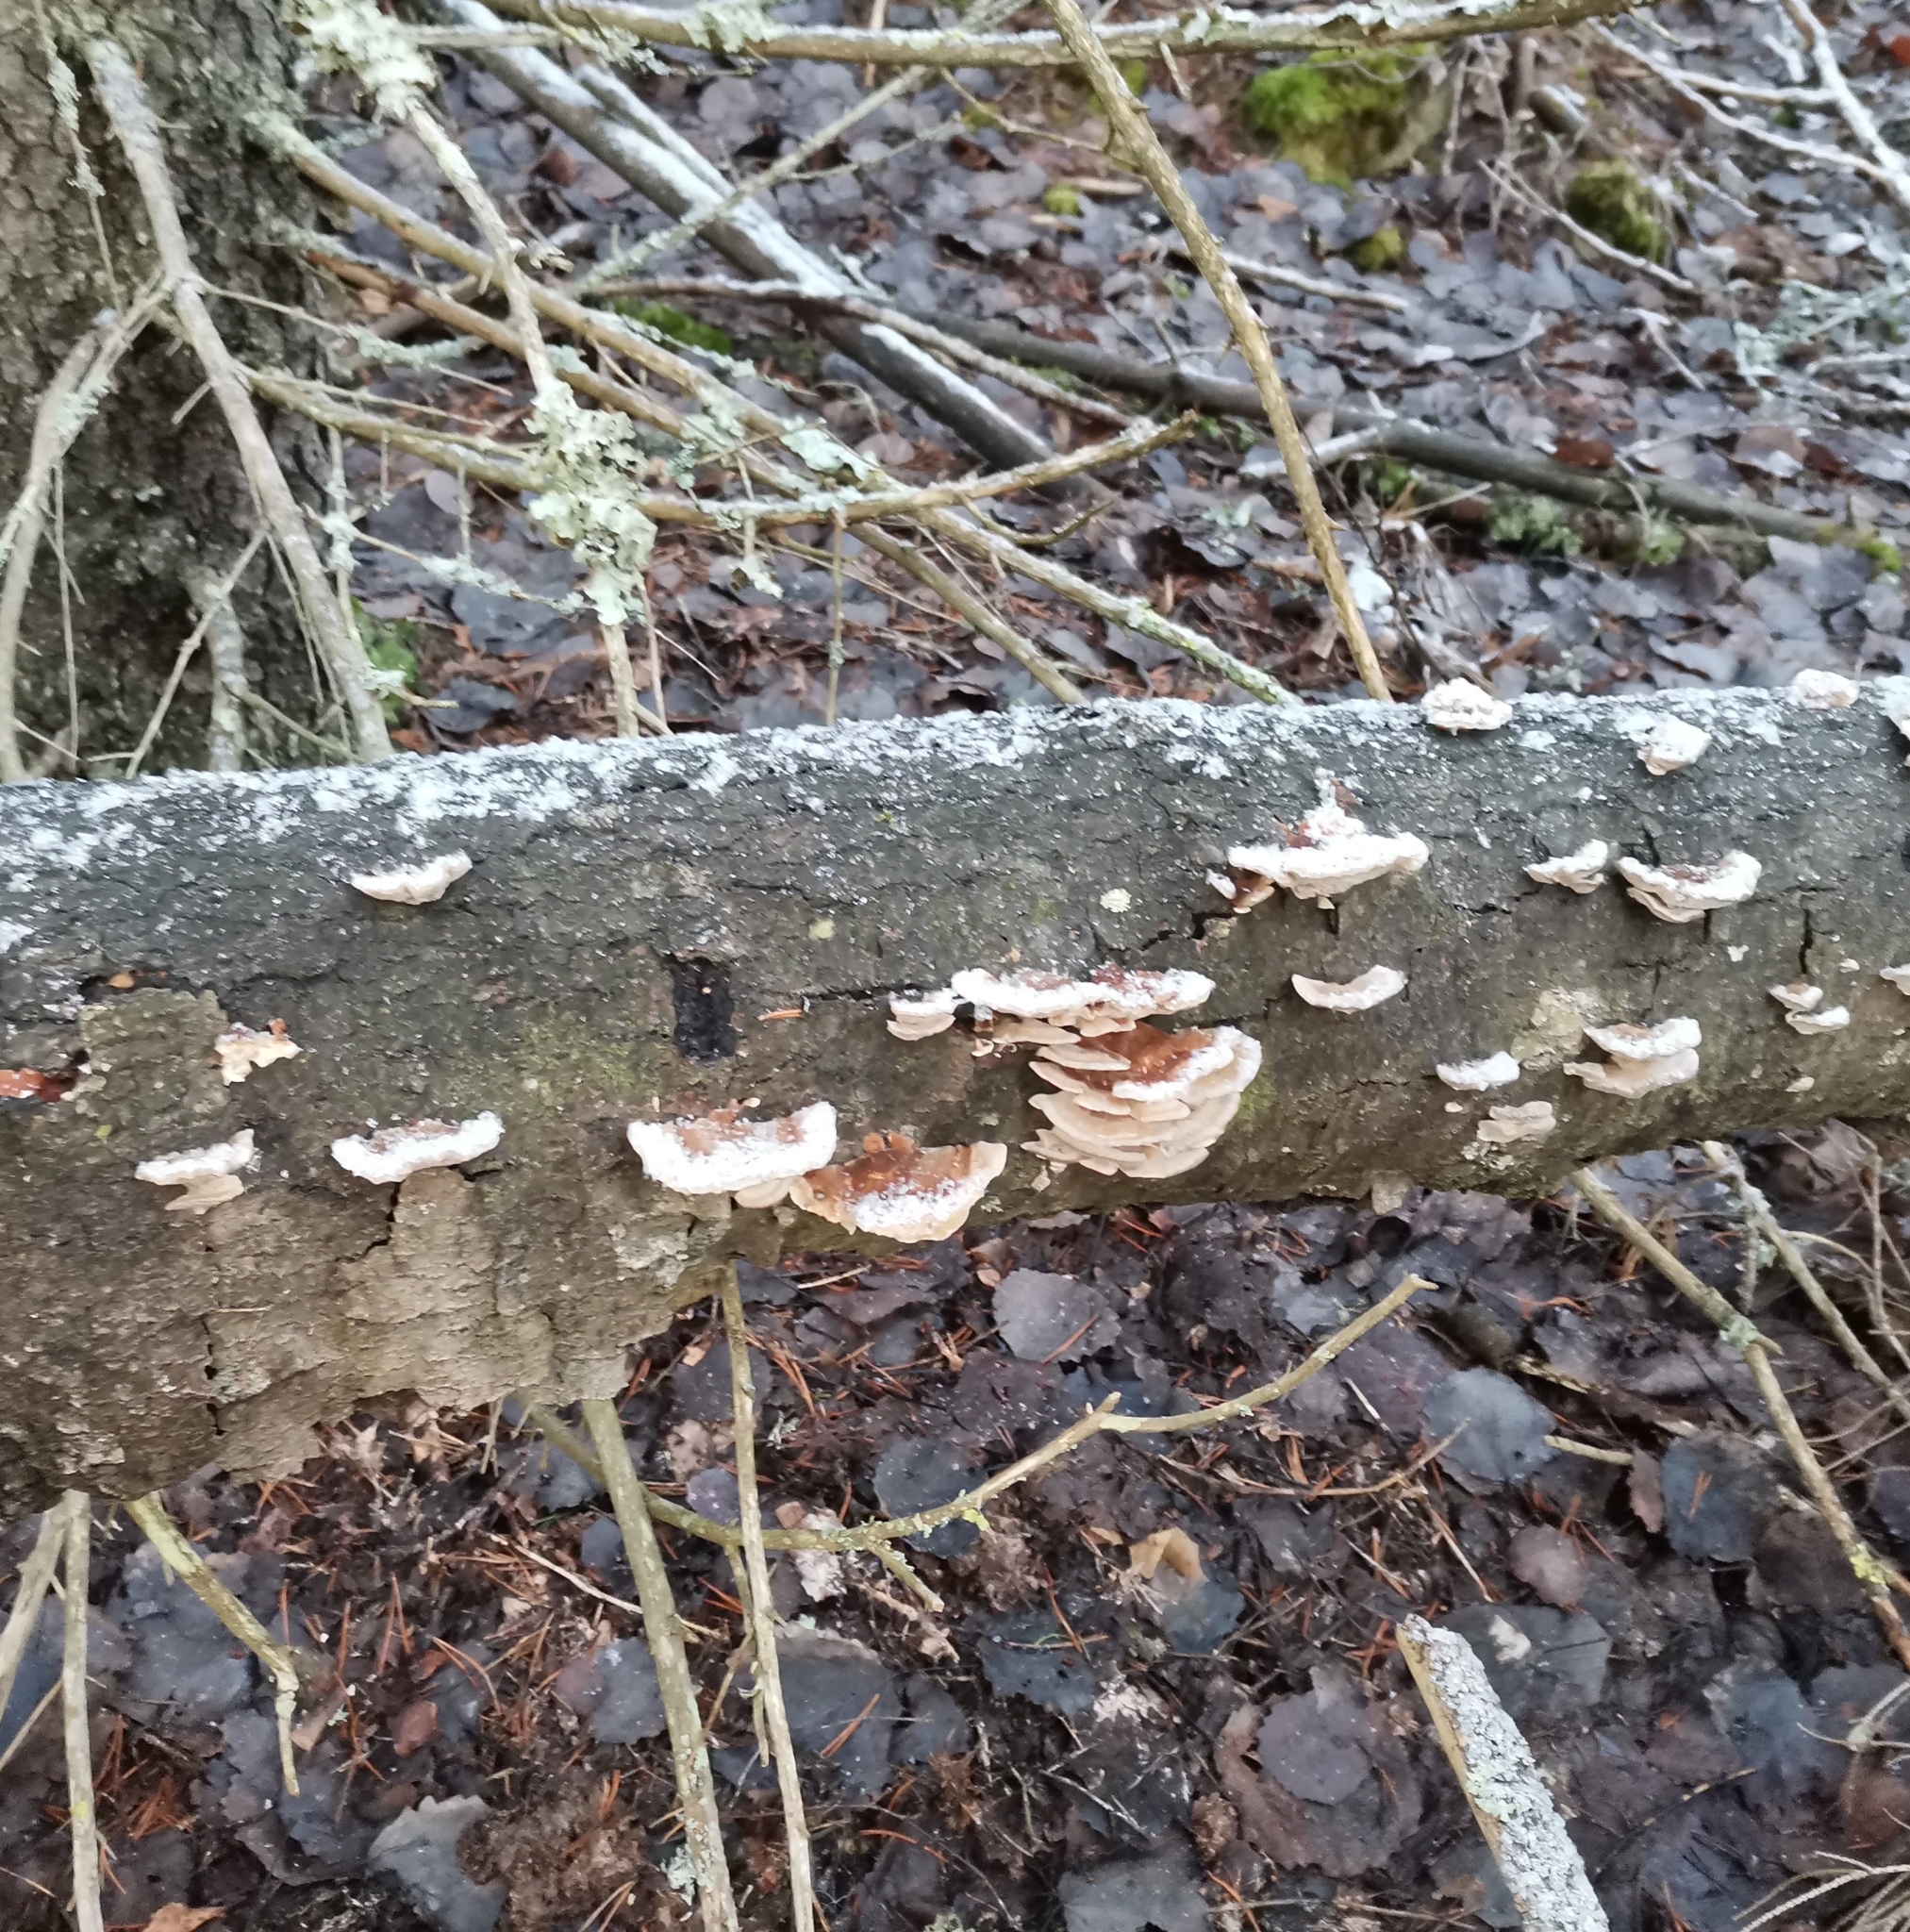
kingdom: Fungi
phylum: Basidiomycota
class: Agaricomycetes
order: Polyporales
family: Polyporaceae
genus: Trametes
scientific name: Trametes ochracea
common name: Ochre bracket
